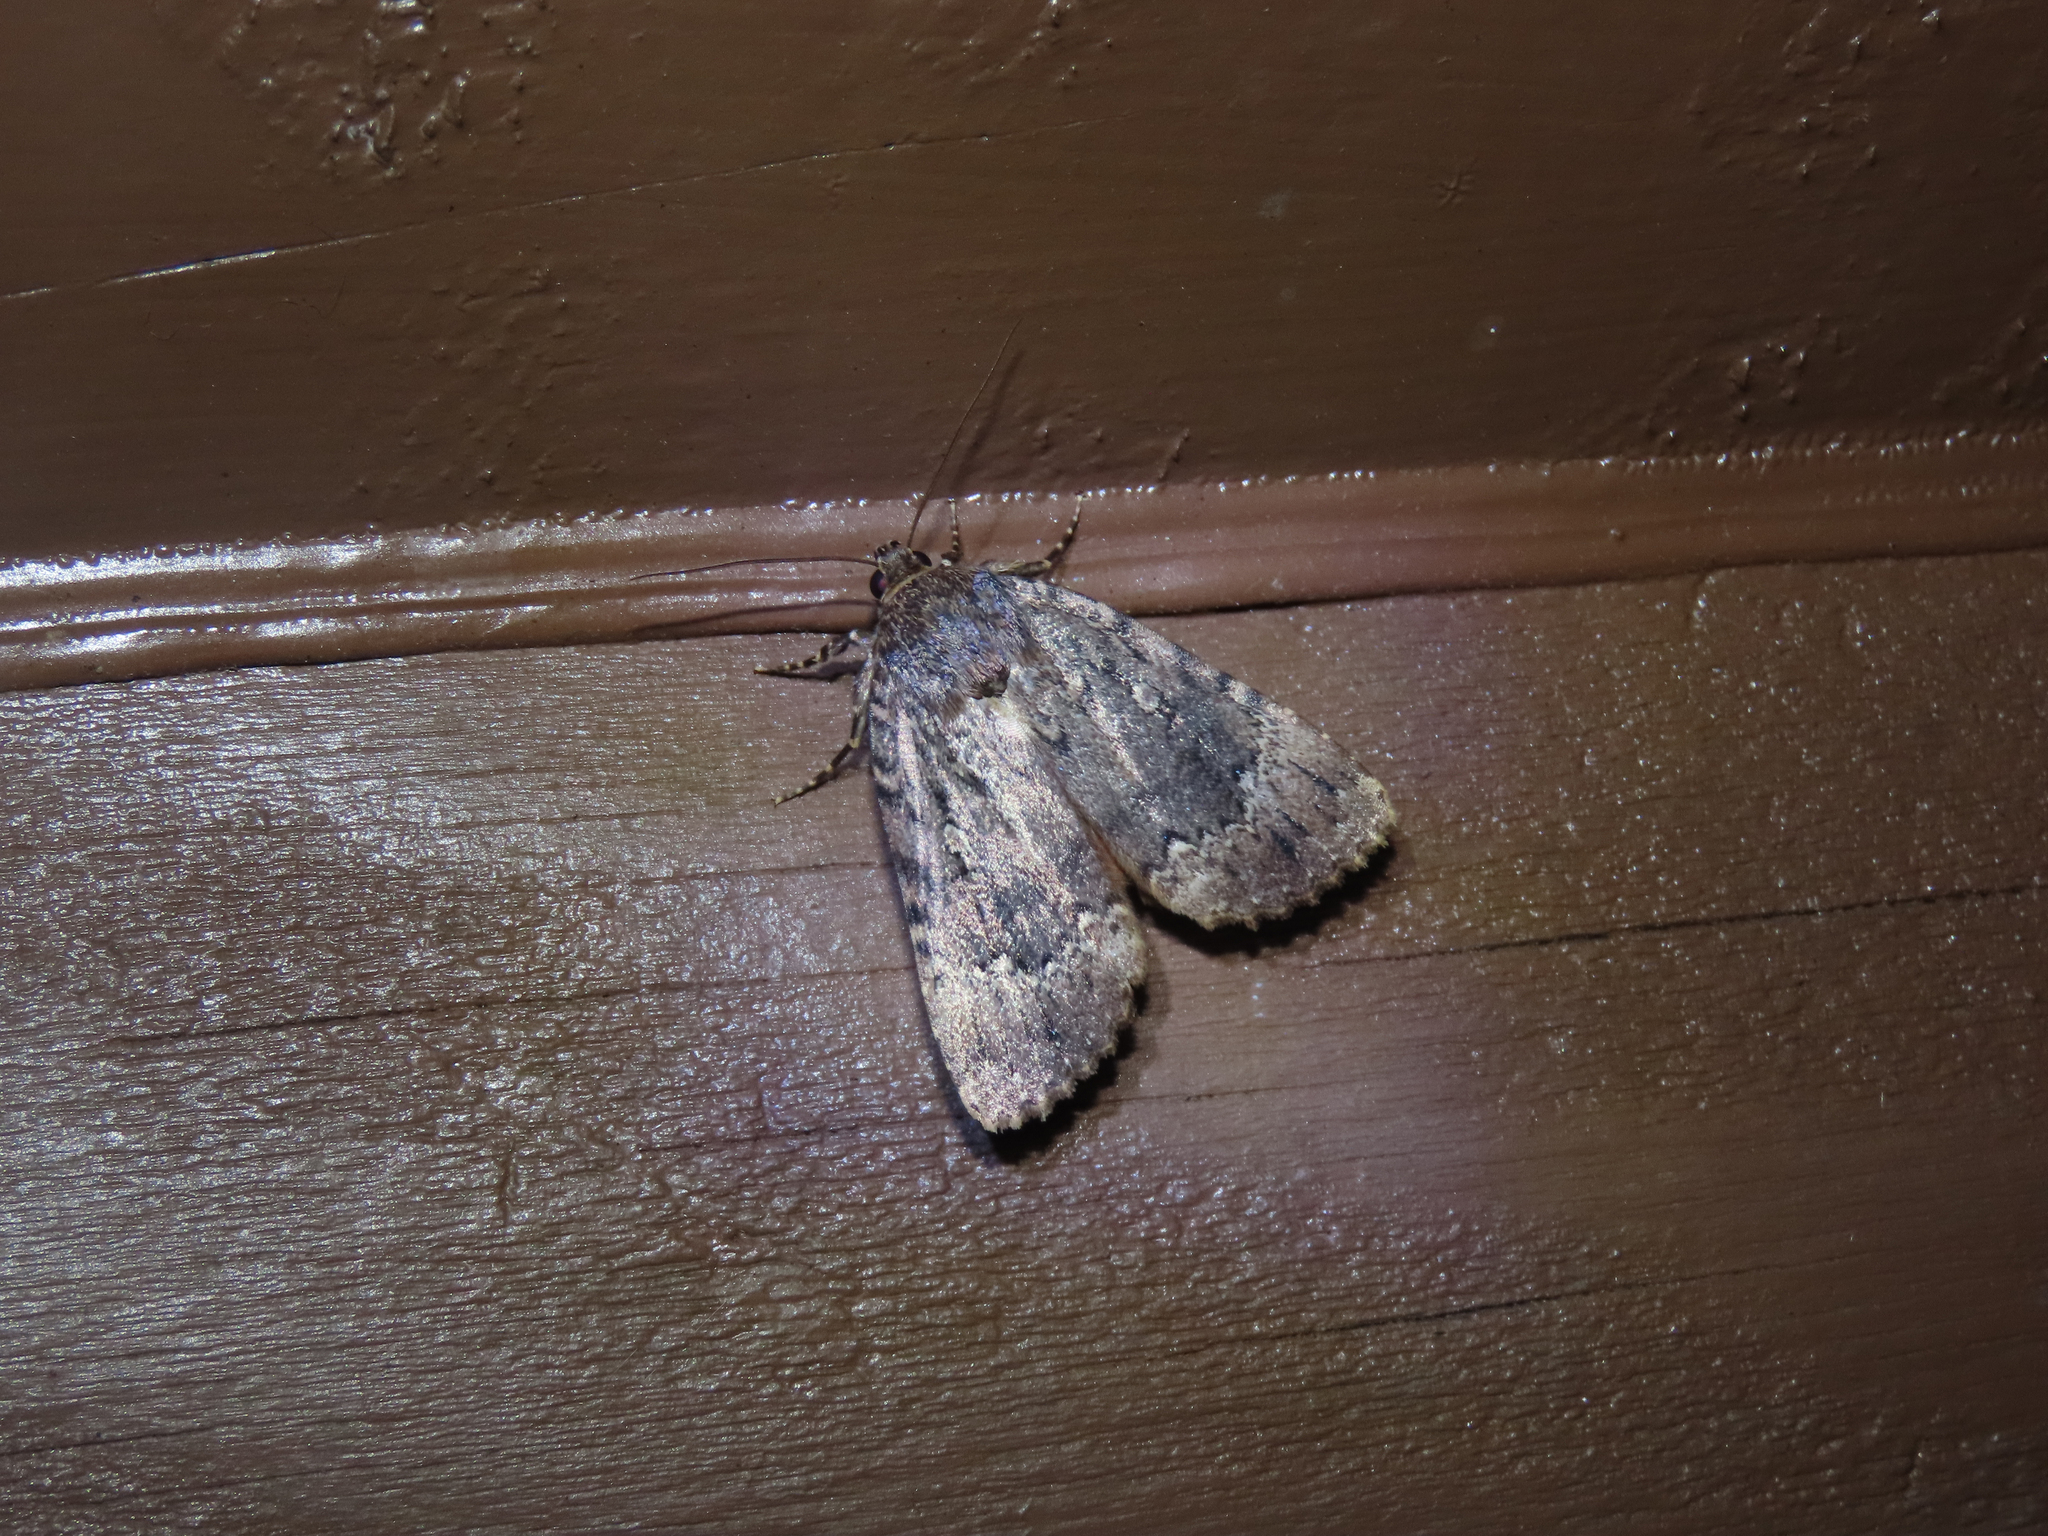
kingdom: Animalia
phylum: Arthropoda
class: Insecta
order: Lepidoptera
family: Noctuidae
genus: Amphipyra
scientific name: Amphipyra pyramidoides
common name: American copper underwing
